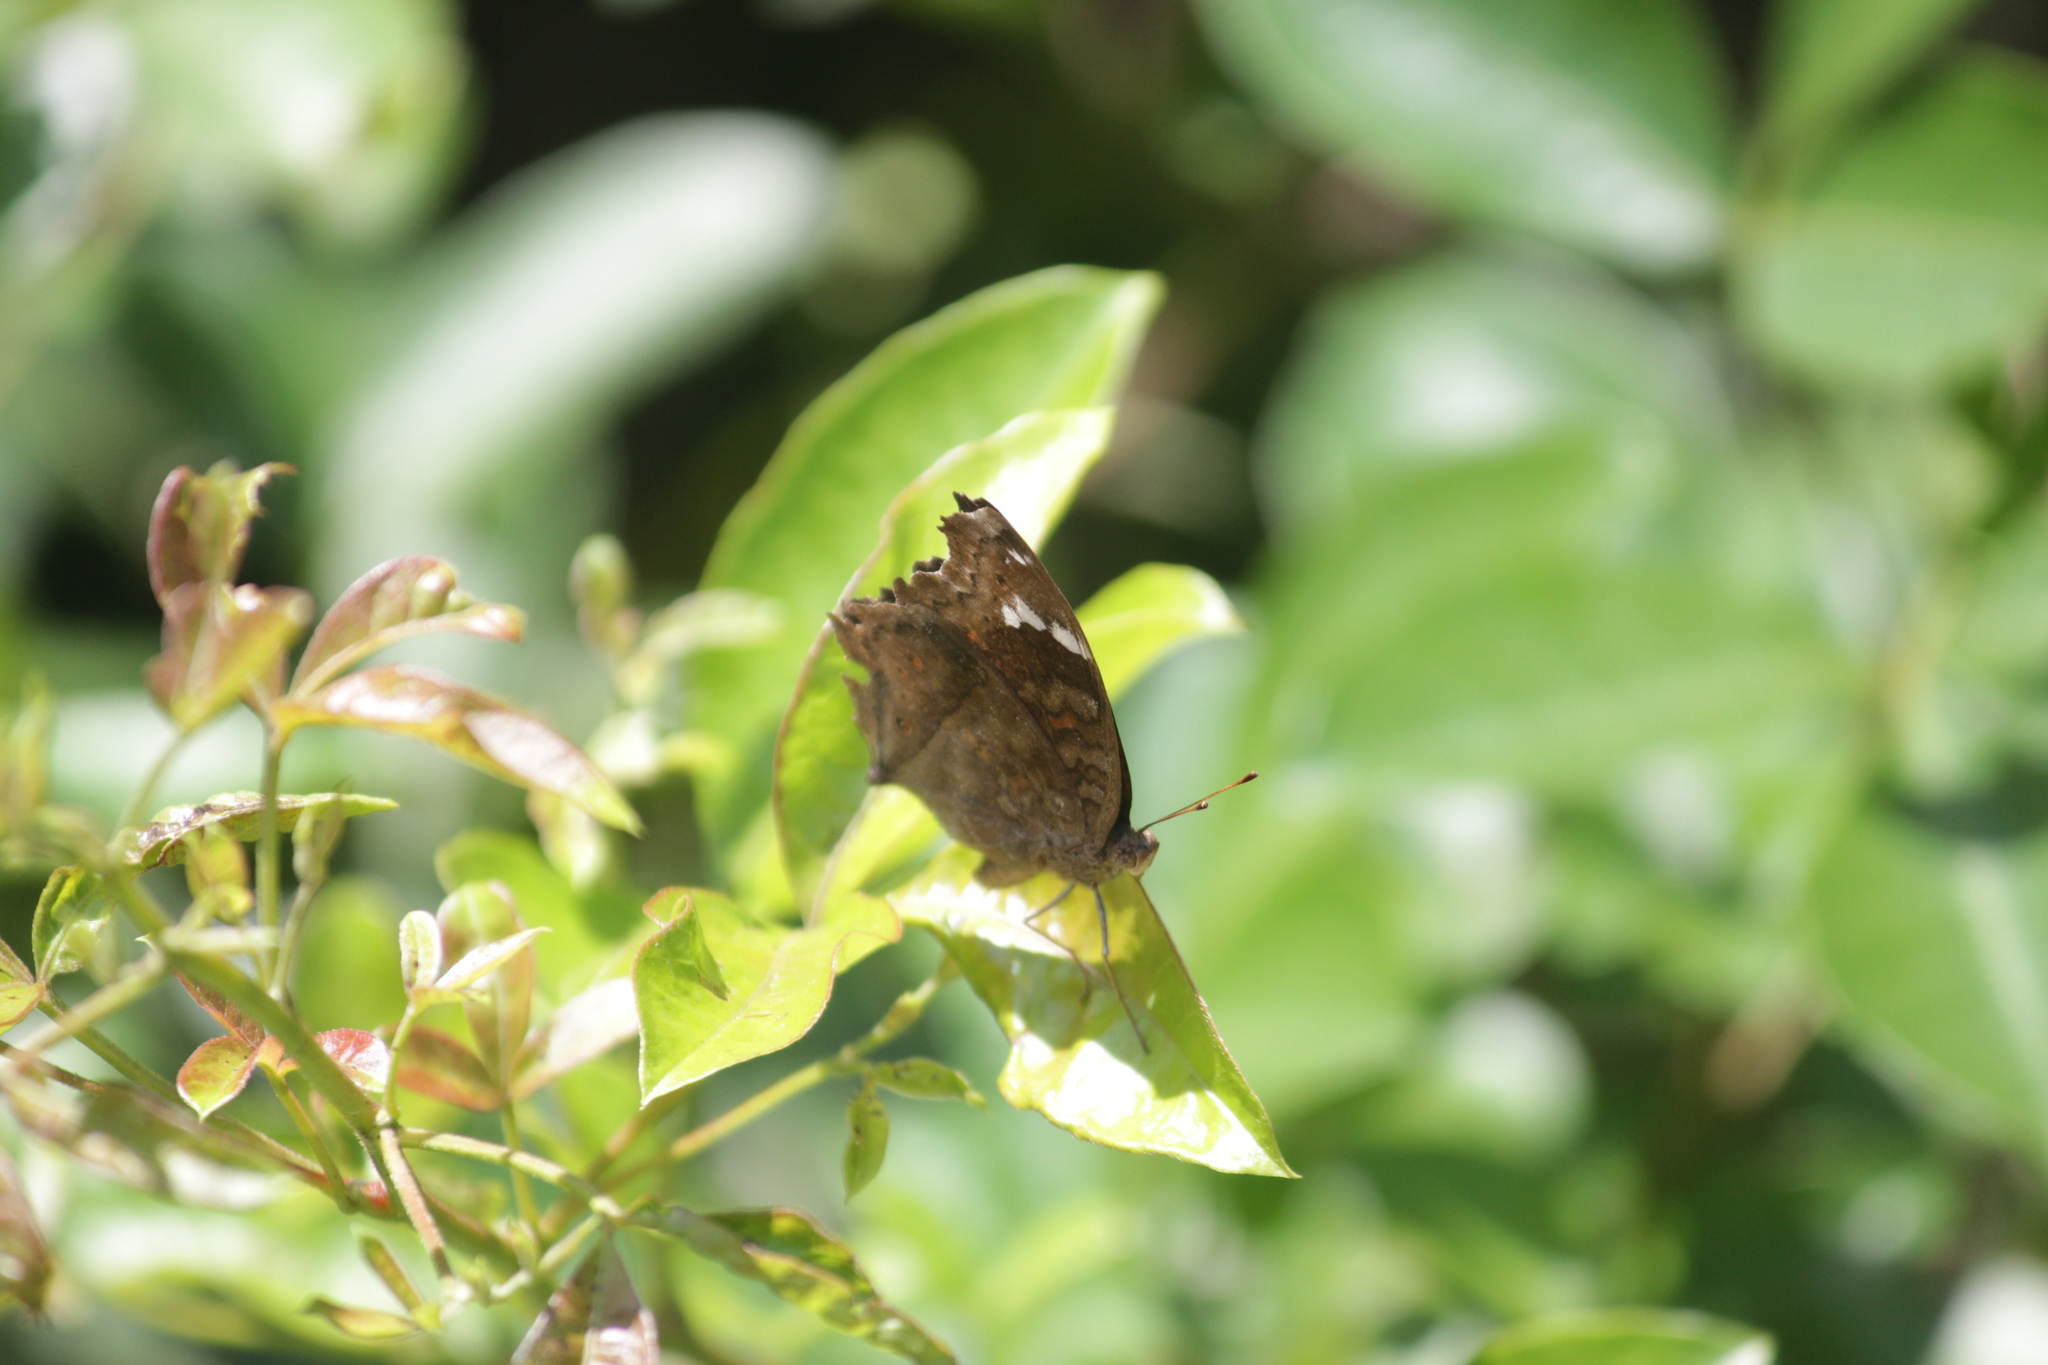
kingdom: Animalia
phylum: Arthropoda
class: Insecta
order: Lepidoptera
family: Nymphalidae
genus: Junonia
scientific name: Junonia natalica
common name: Brown pansy
